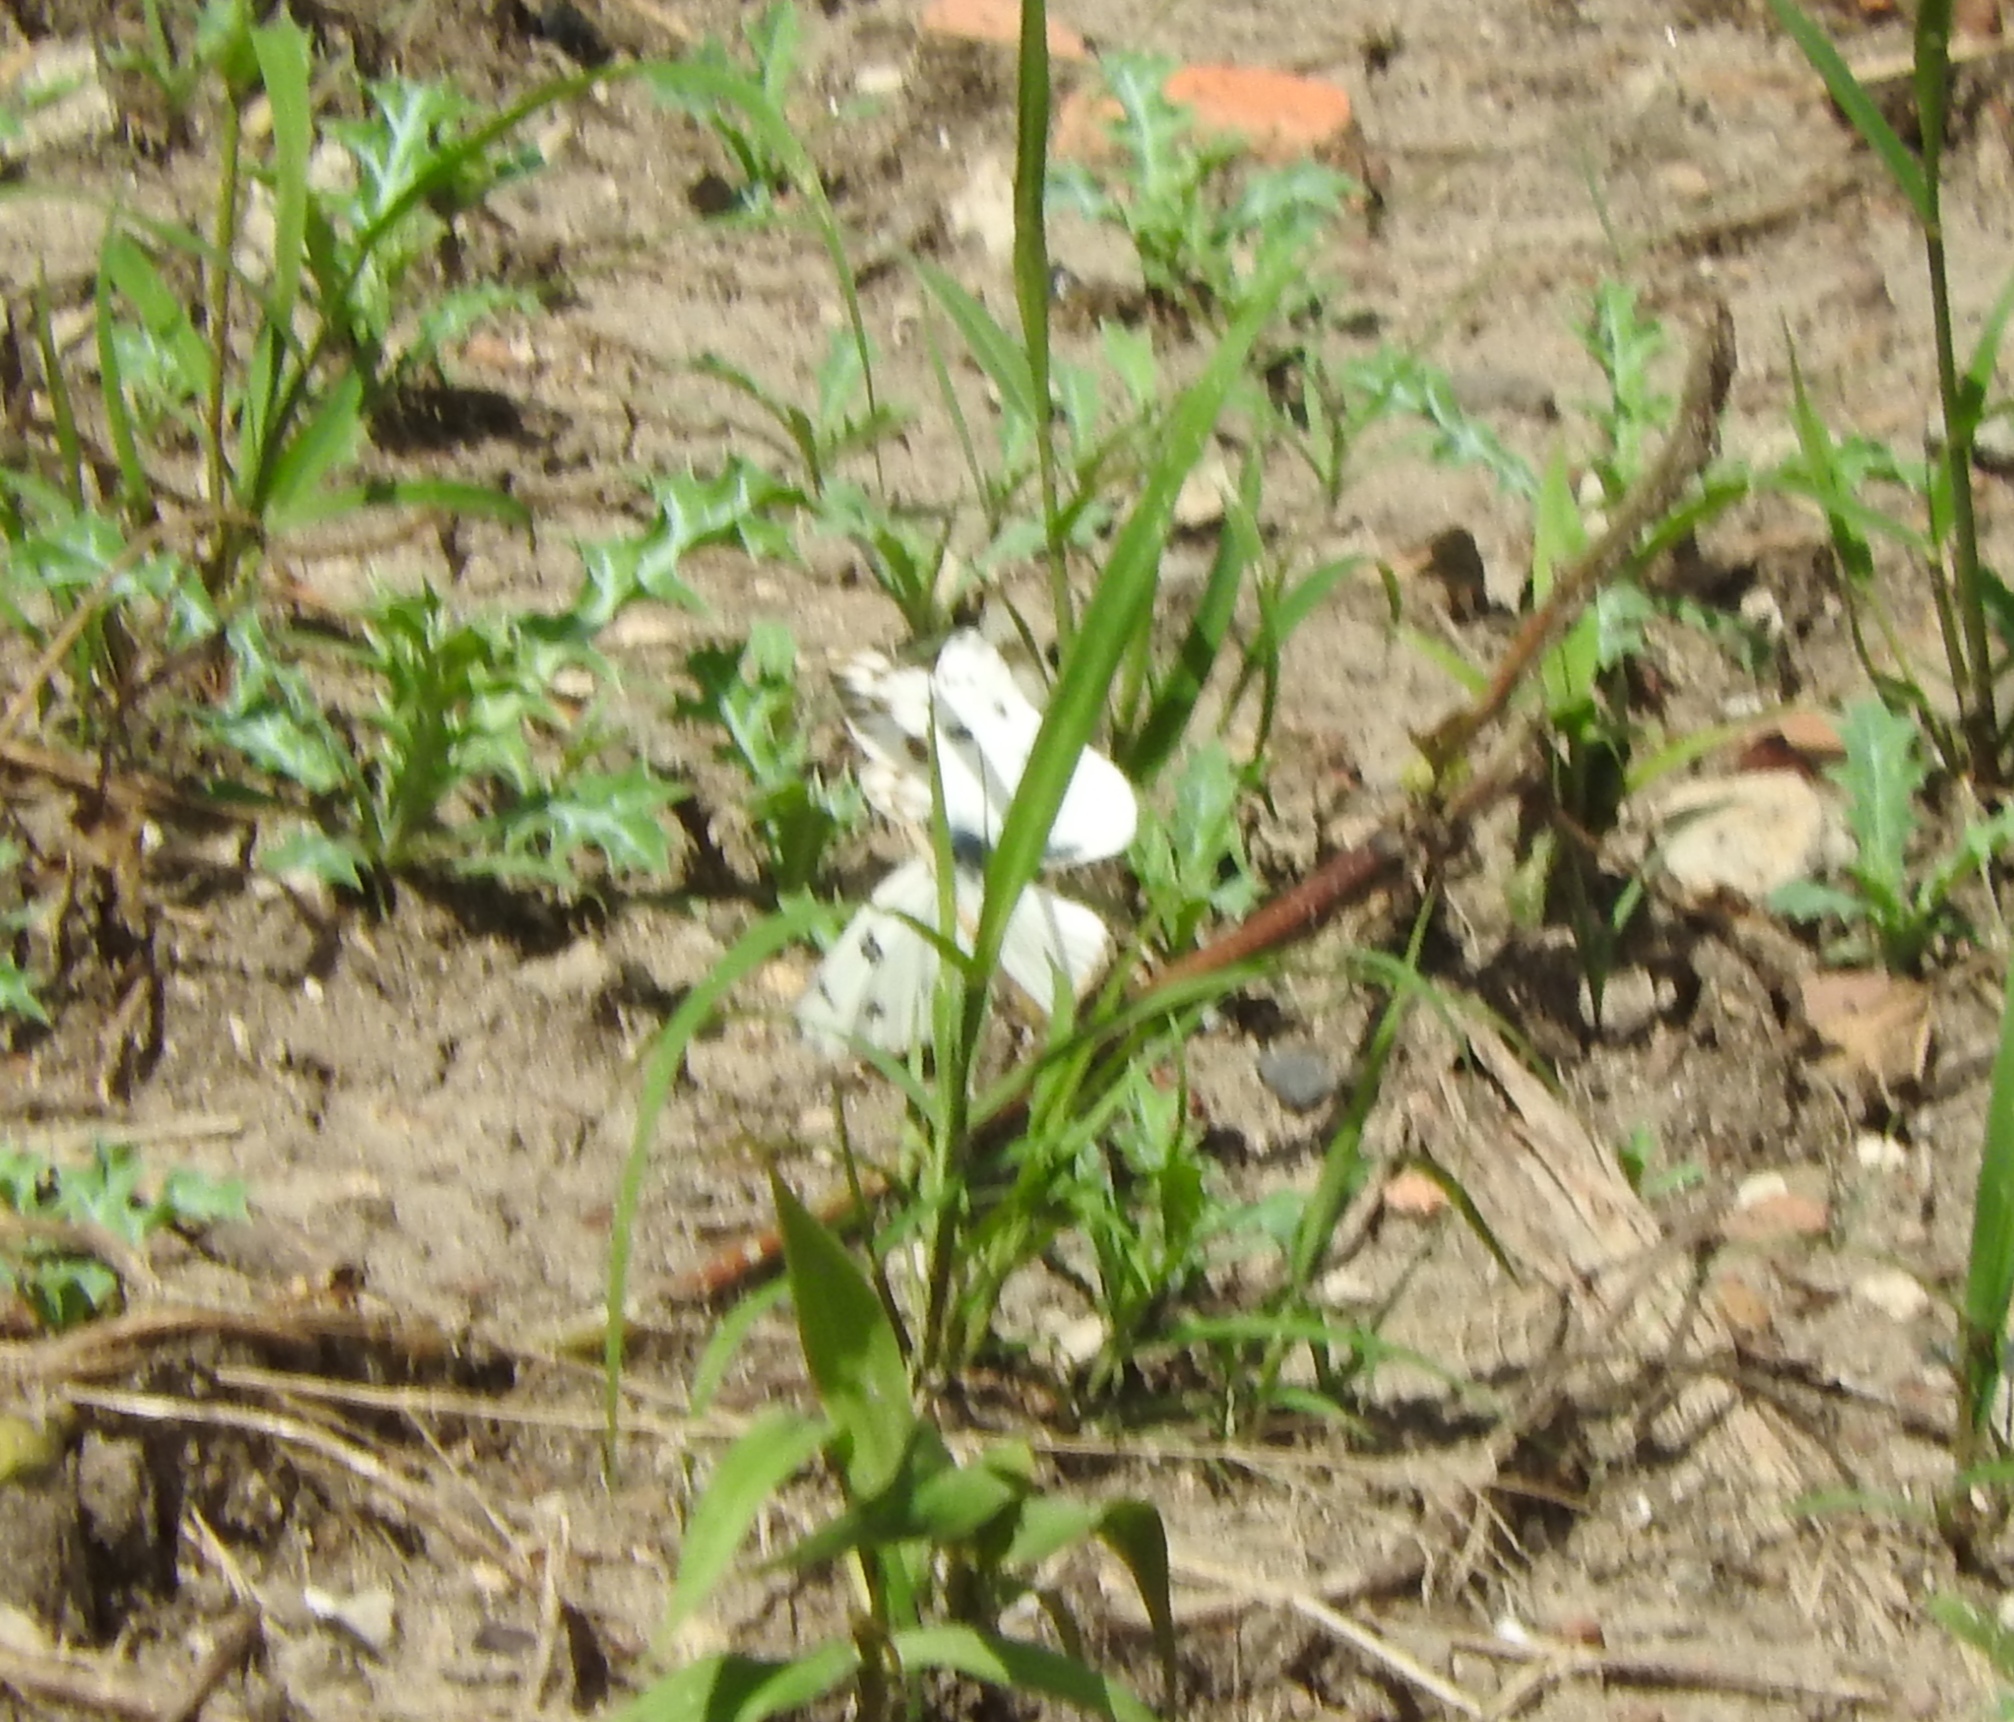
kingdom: Animalia
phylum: Arthropoda
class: Insecta
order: Lepidoptera
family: Pieridae
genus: Pontia
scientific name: Pontia protodice
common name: Checkered white
